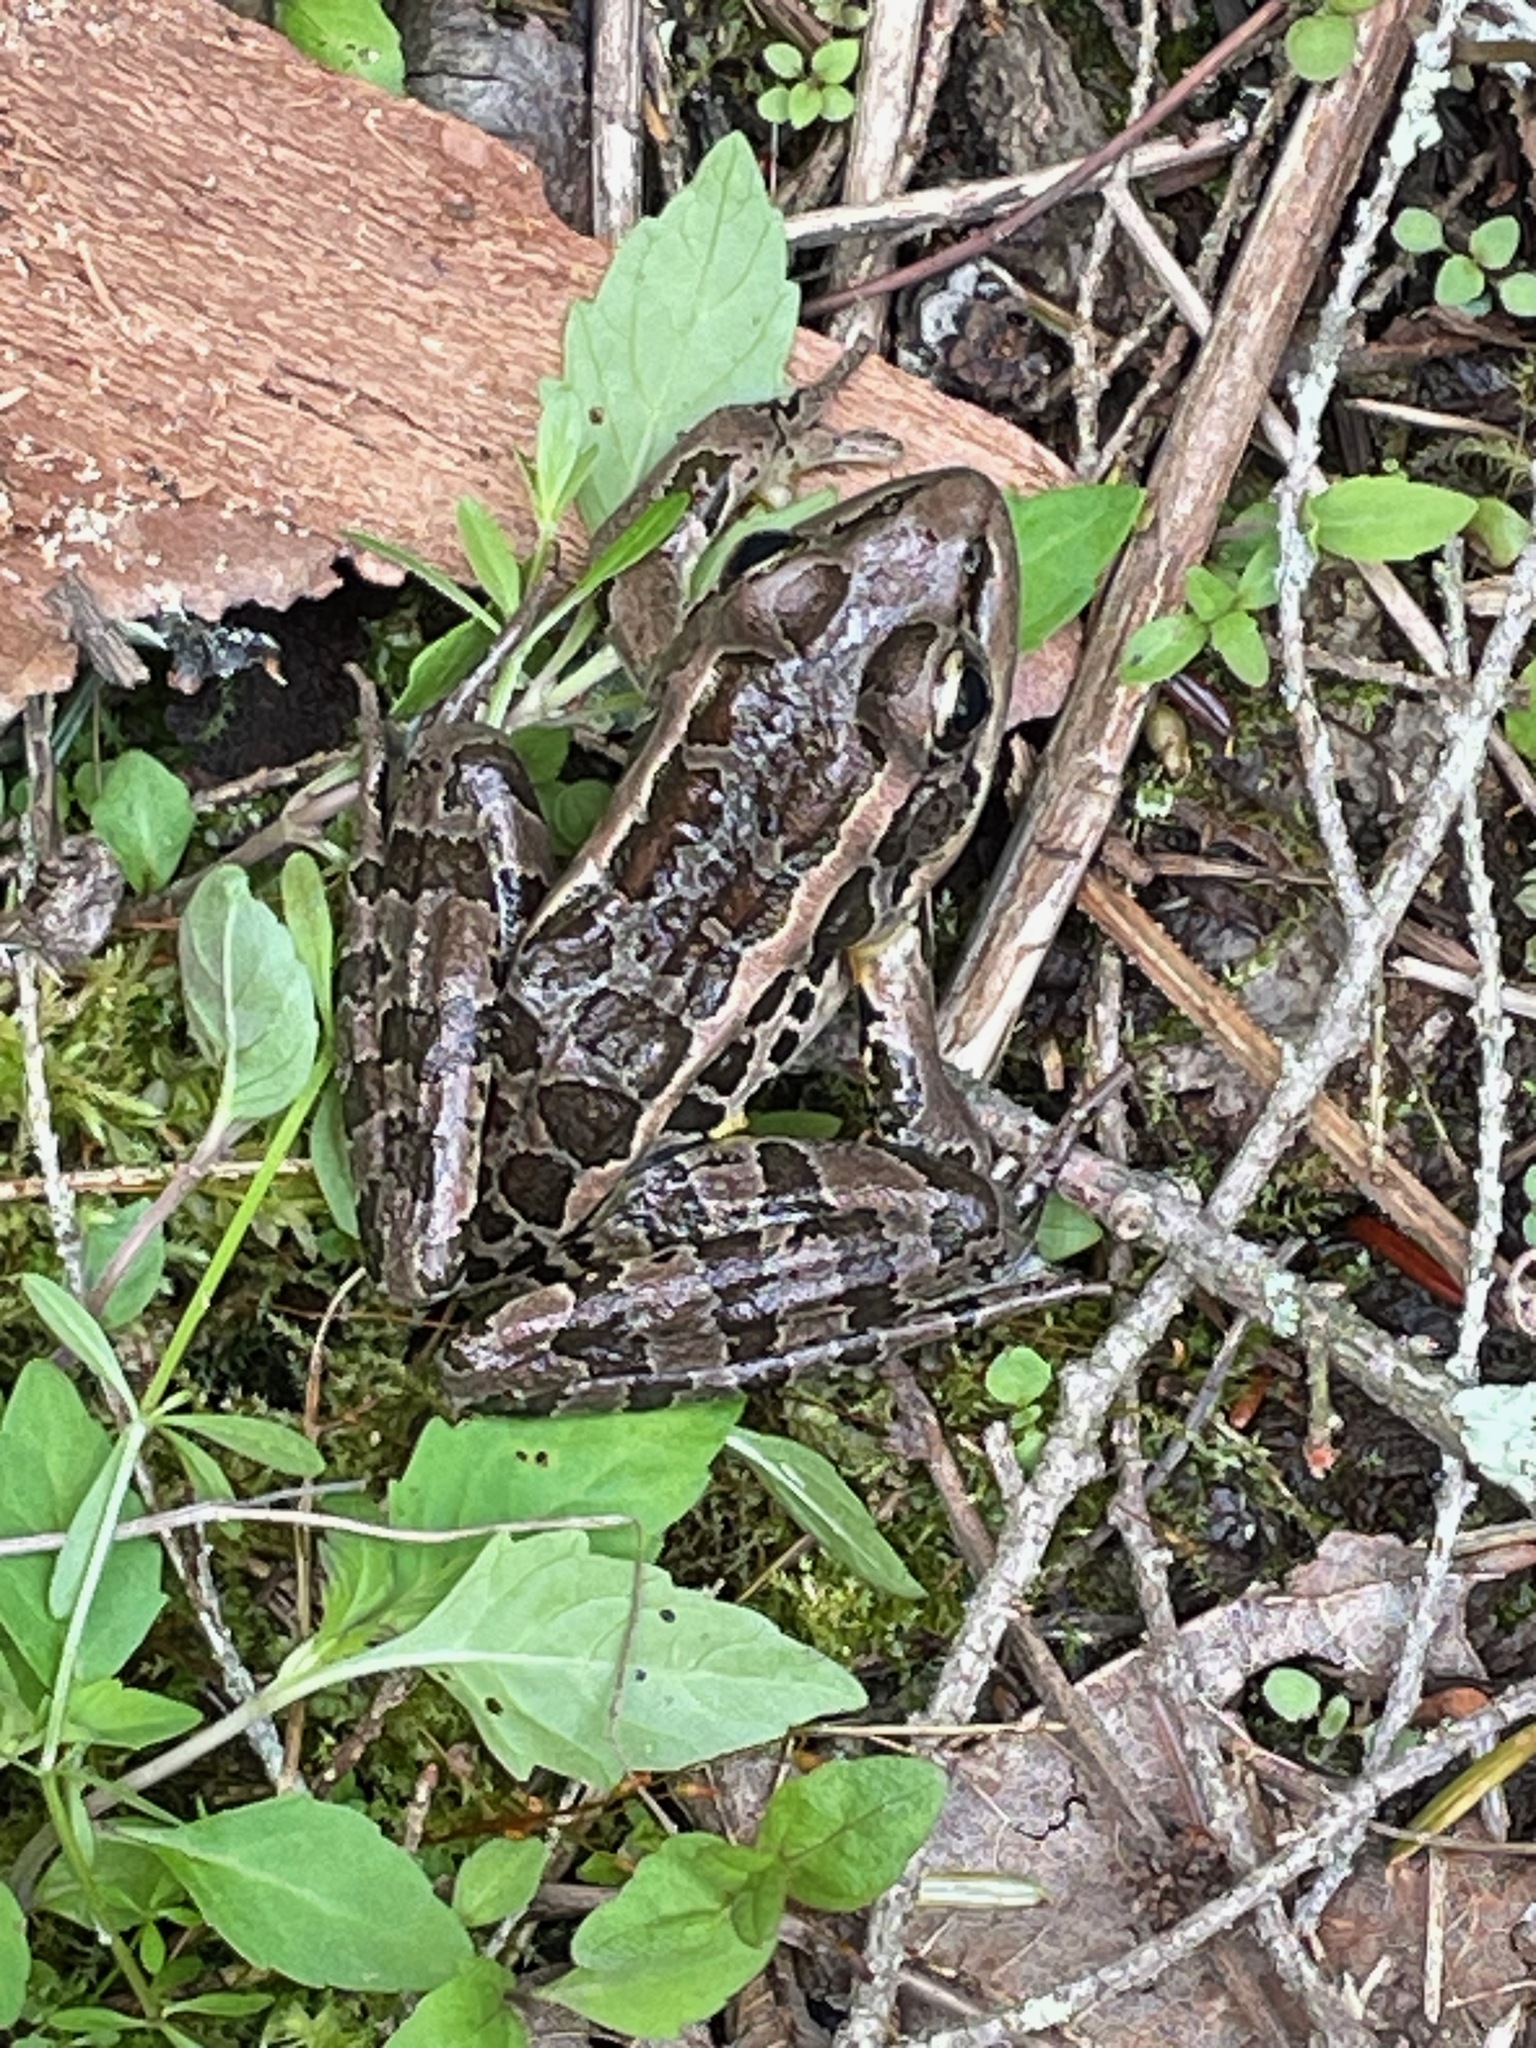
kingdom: Animalia
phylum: Chordata
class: Amphibia
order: Anura
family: Ranidae
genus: Lithobates
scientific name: Lithobates palustris
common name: Pickerel frog
